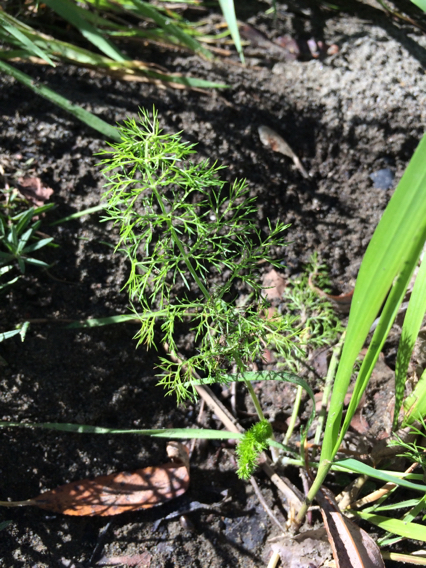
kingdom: Plantae
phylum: Tracheophyta
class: Magnoliopsida
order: Apiales
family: Apiaceae
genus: Foeniculum
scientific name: Foeniculum vulgare
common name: Fennel
